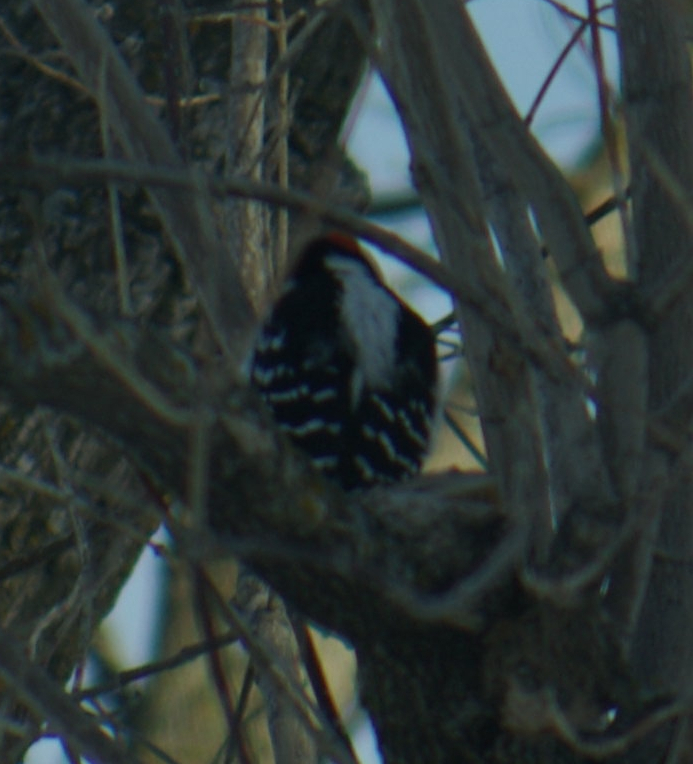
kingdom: Animalia
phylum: Chordata
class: Aves
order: Piciformes
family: Picidae
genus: Leuconotopicus
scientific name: Leuconotopicus villosus
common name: Hairy woodpecker
